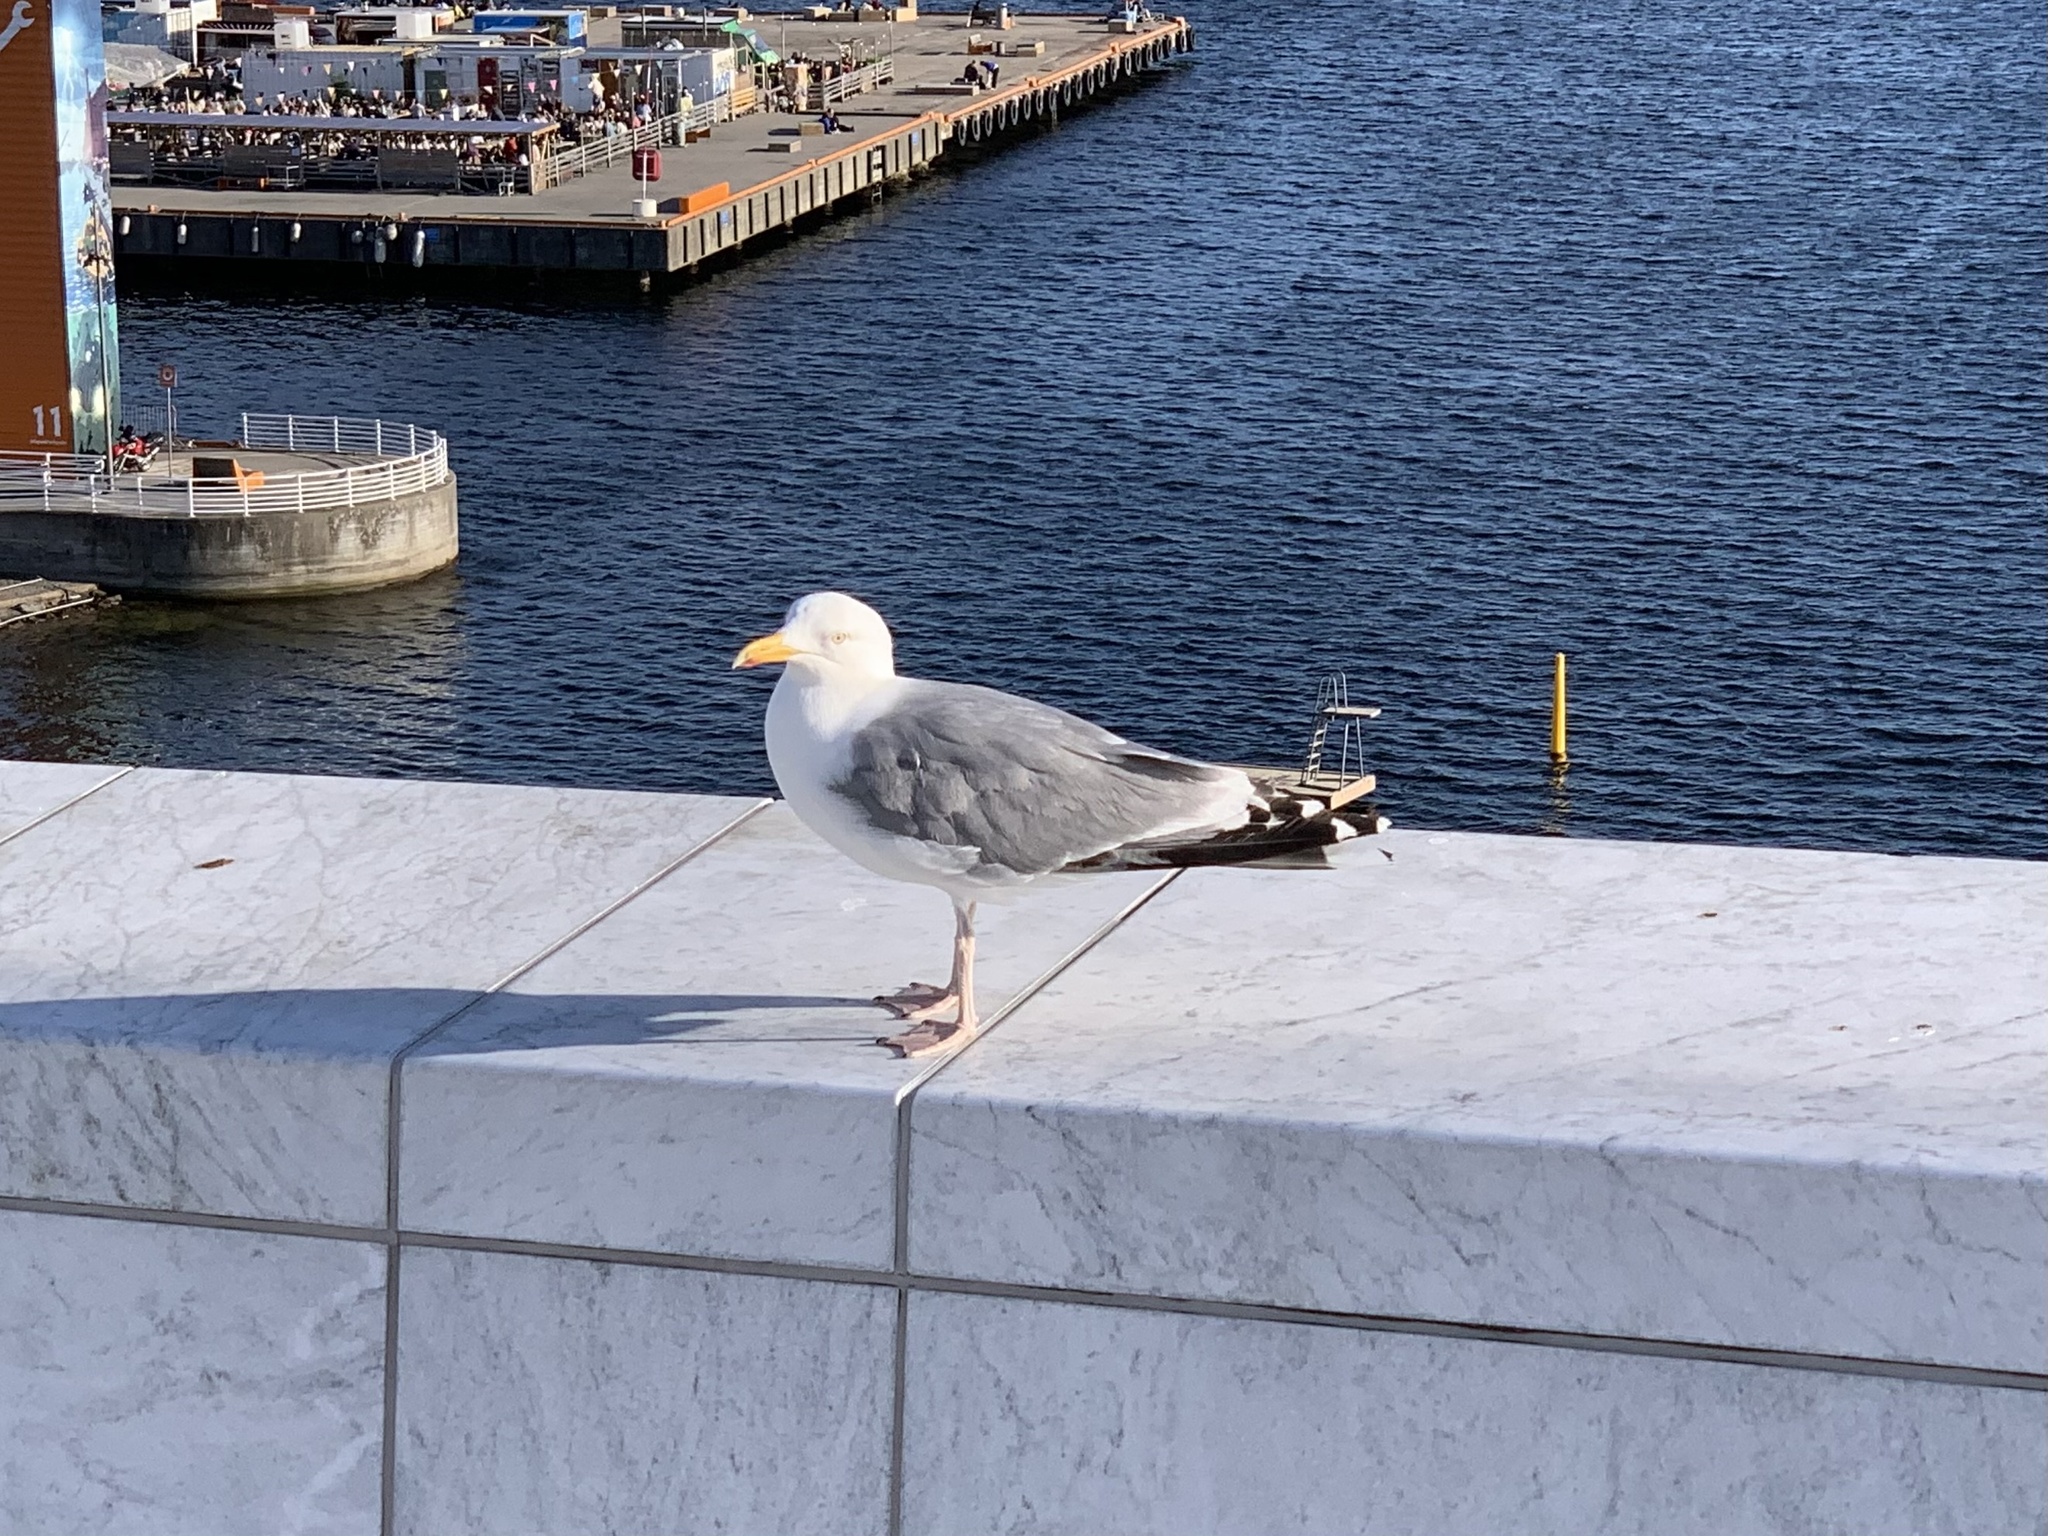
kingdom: Animalia
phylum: Chordata
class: Aves
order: Charadriiformes
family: Laridae
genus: Larus
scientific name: Larus argentatus
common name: Herring gull
